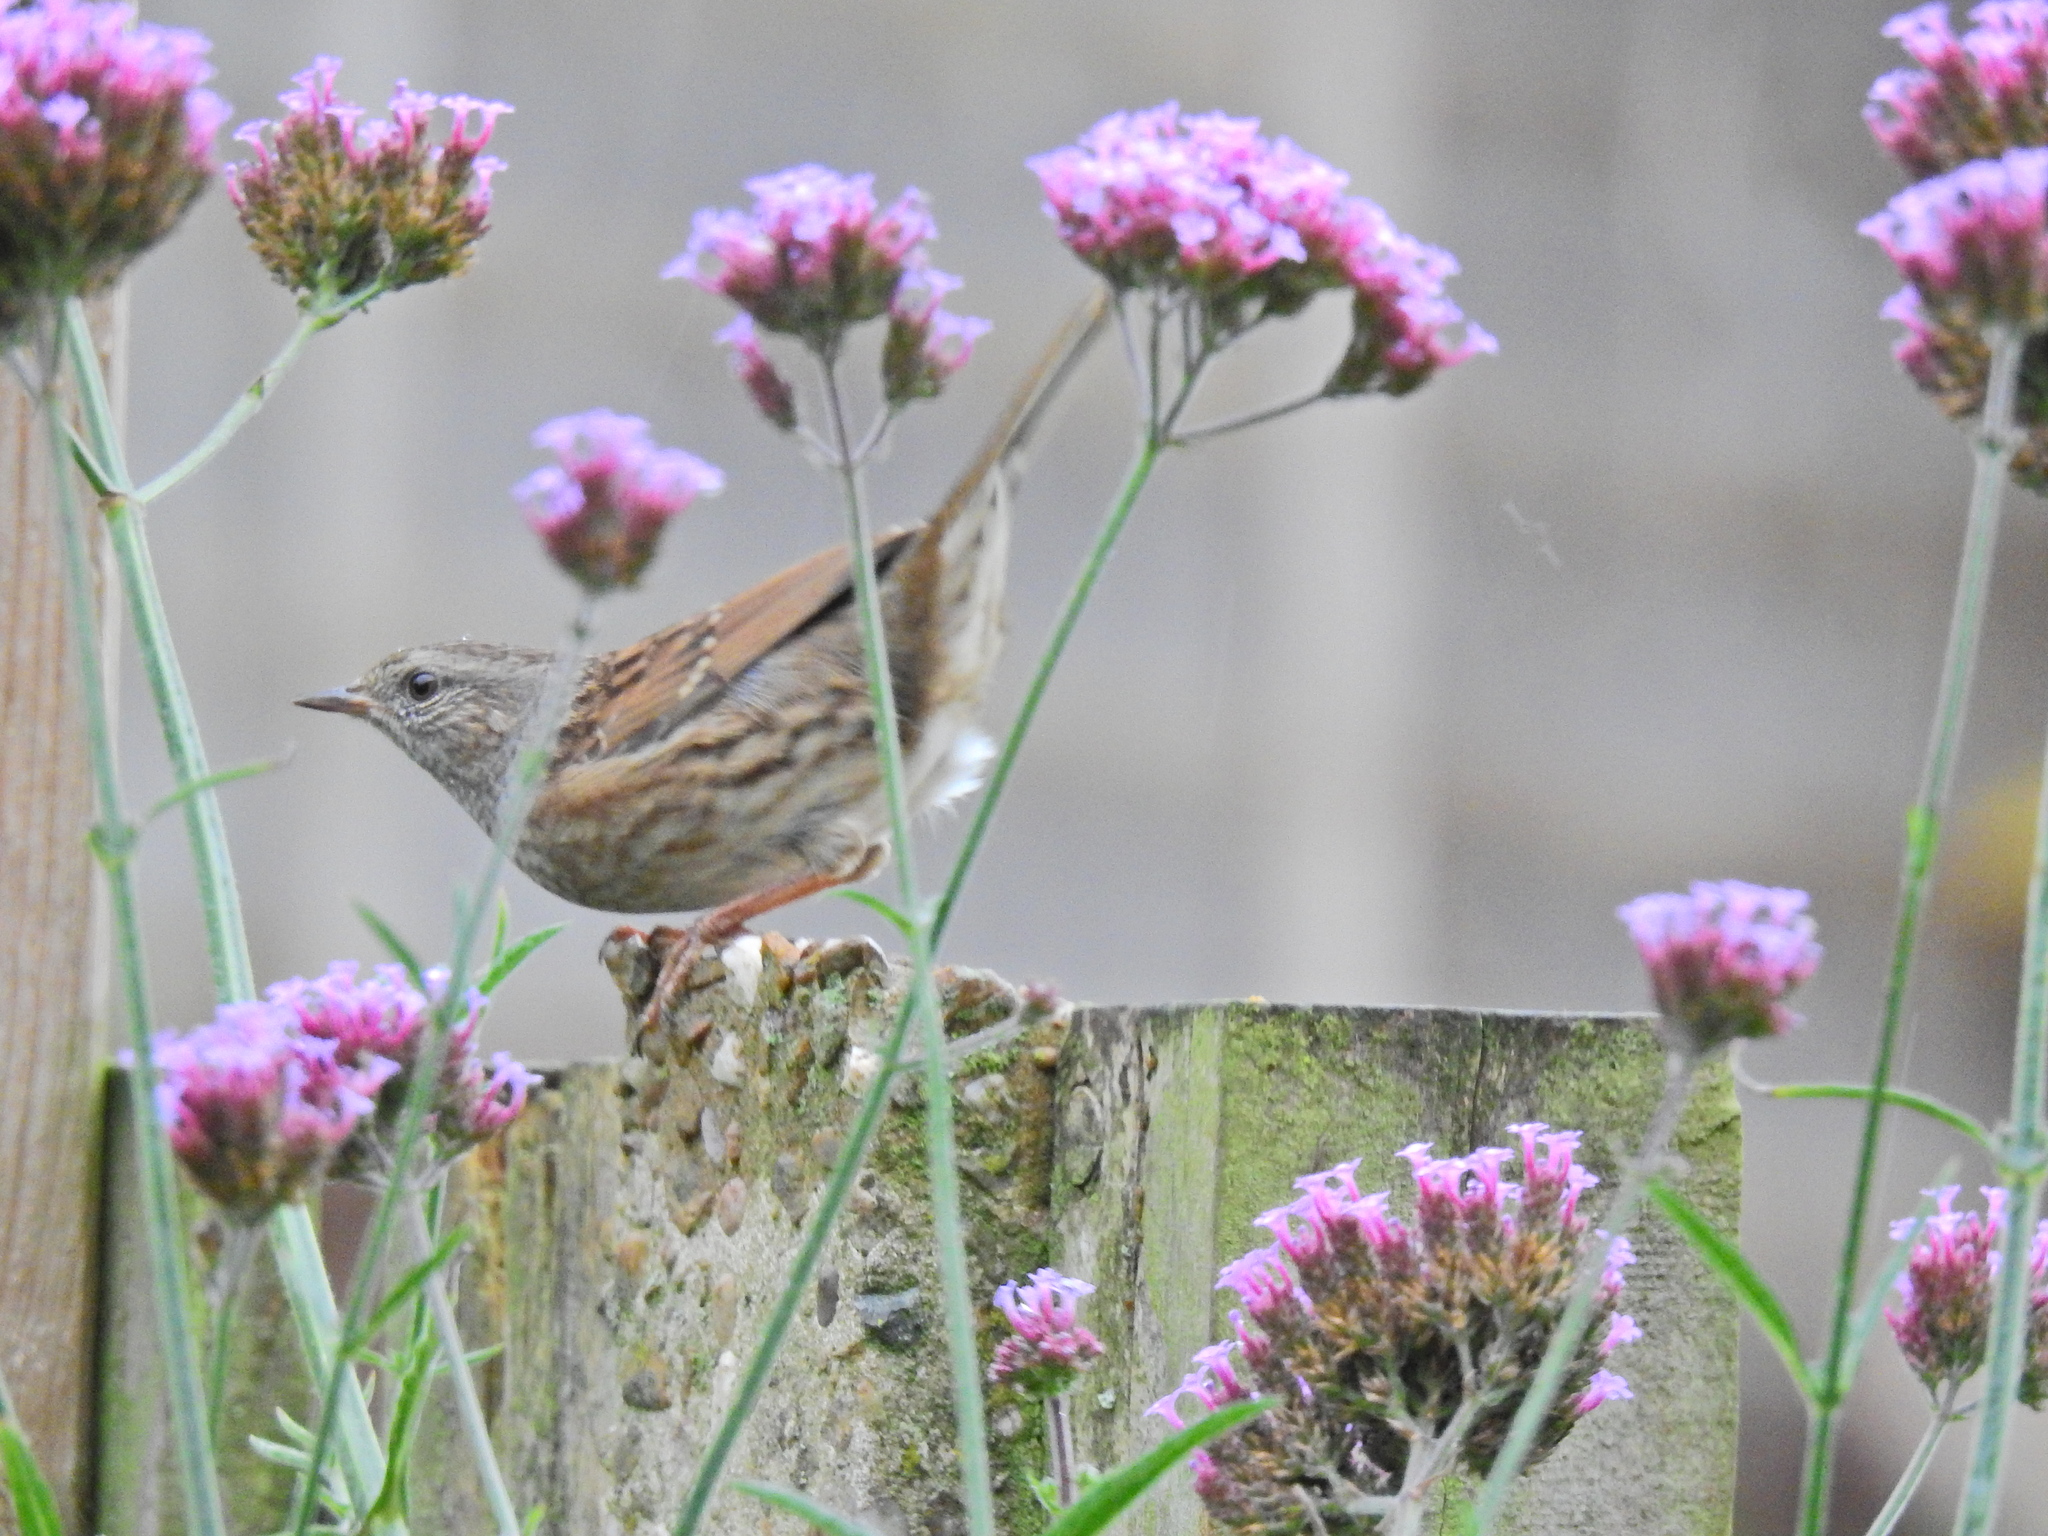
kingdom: Animalia
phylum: Chordata
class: Aves
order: Passeriformes
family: Prunellidae
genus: Prunella
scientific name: Prunella modularis
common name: Dunnock
